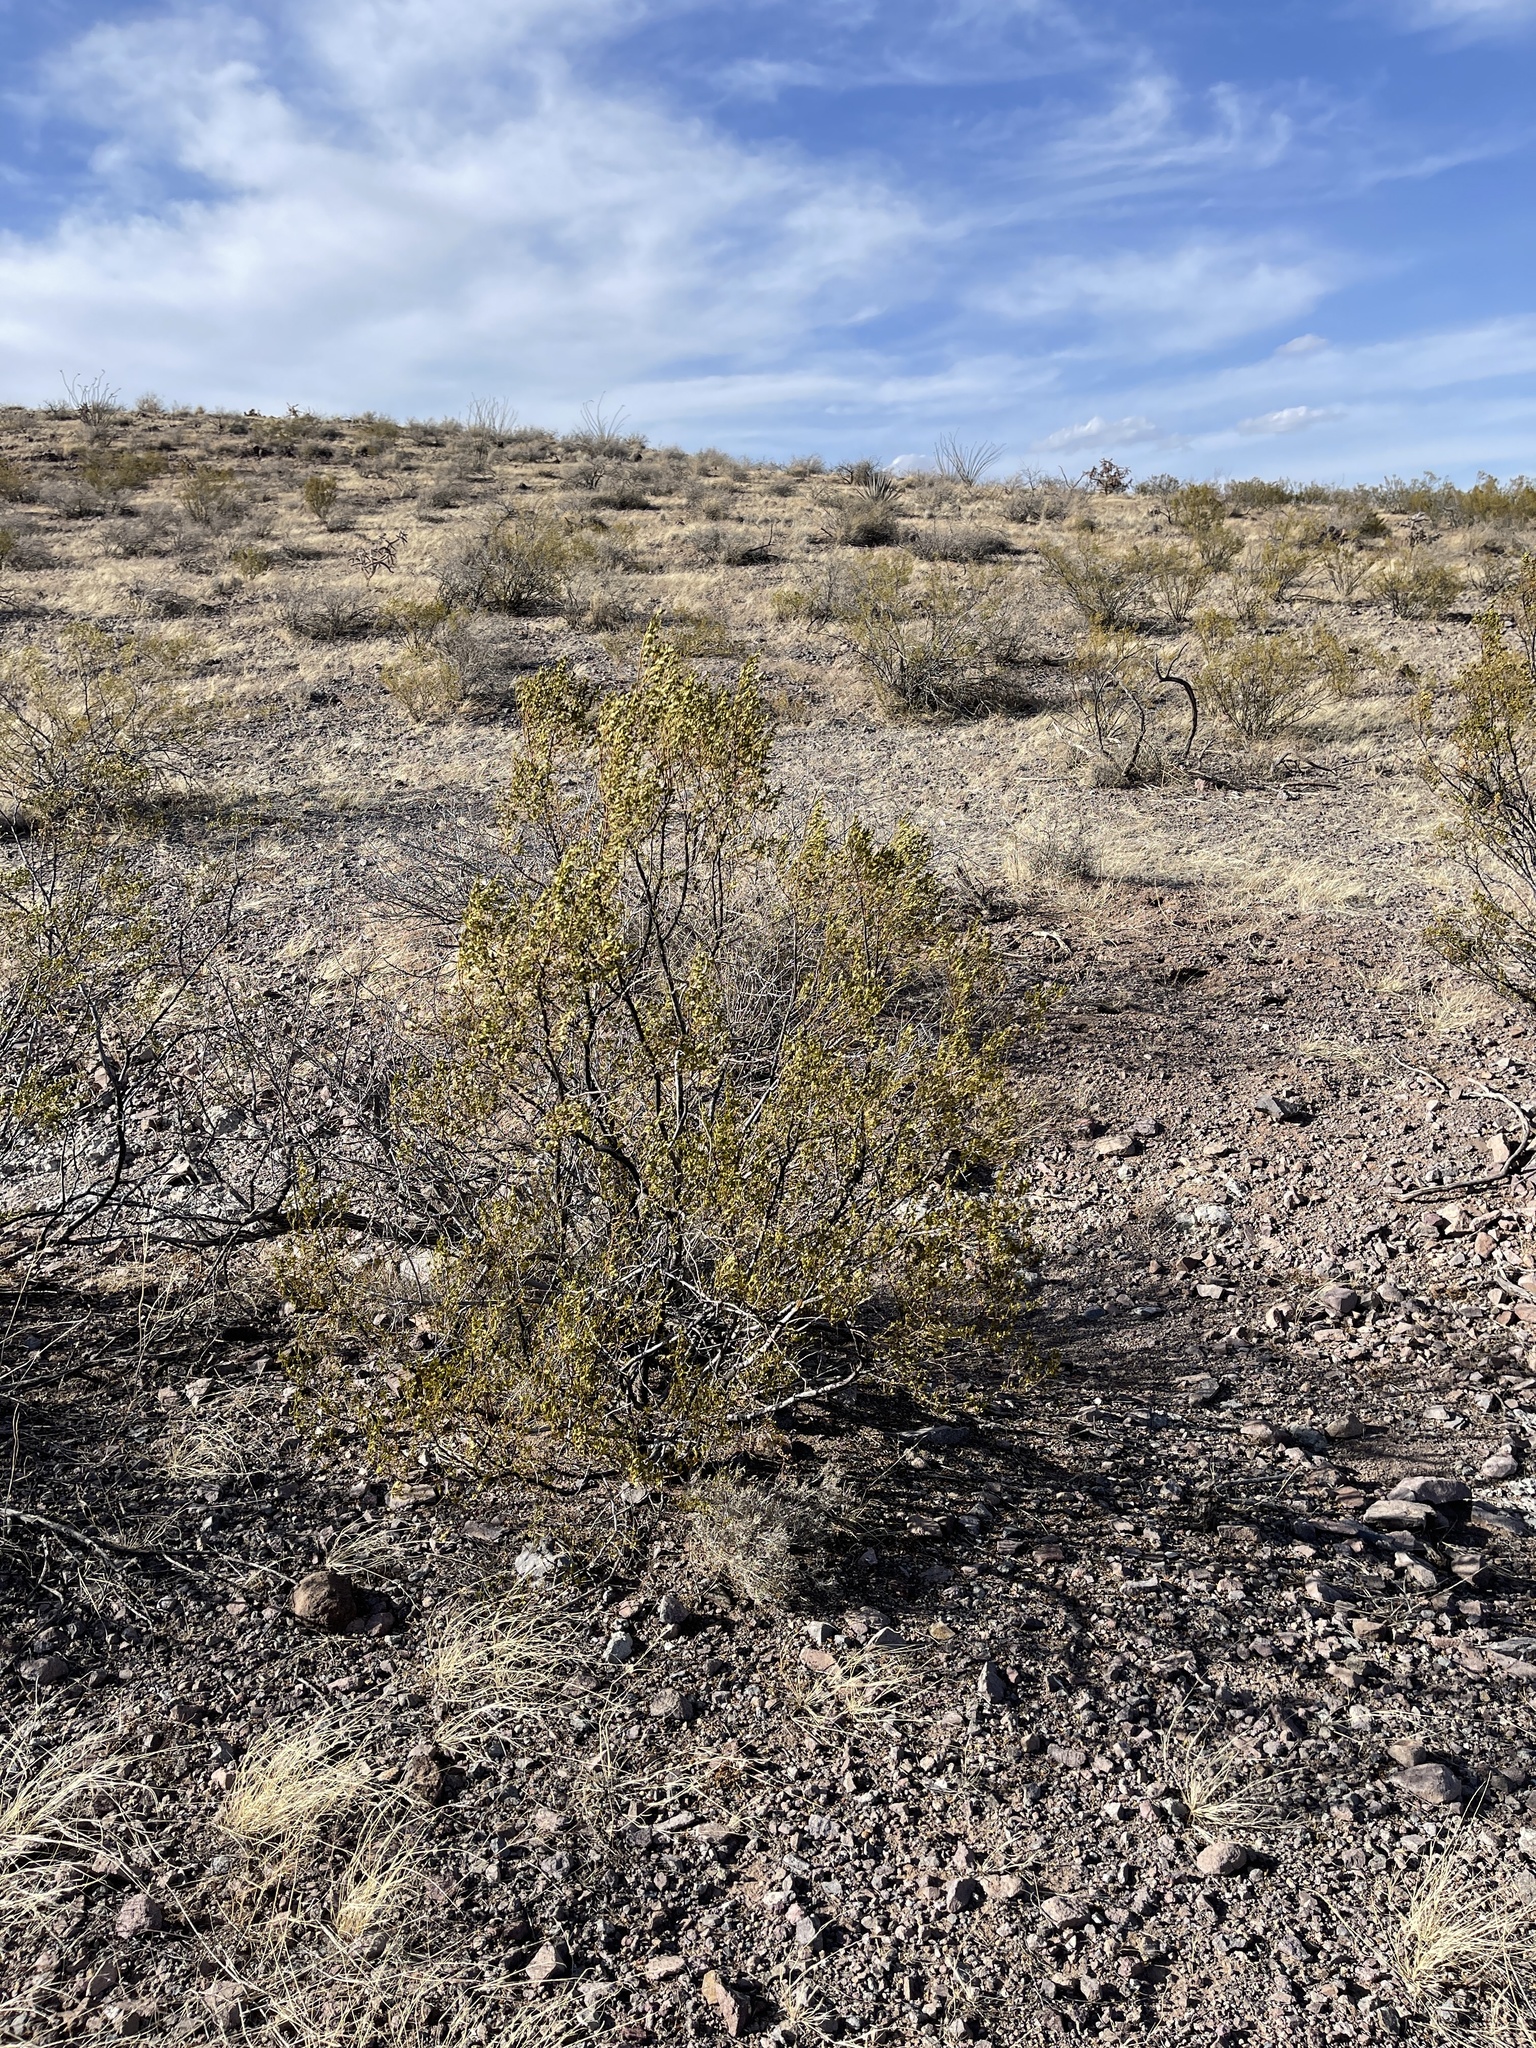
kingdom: Plantae
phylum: Tracheophyta
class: Magnoliopsida
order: Zygophyllales
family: Zygophyllaceae
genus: Larrea
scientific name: Larrea tridentata
